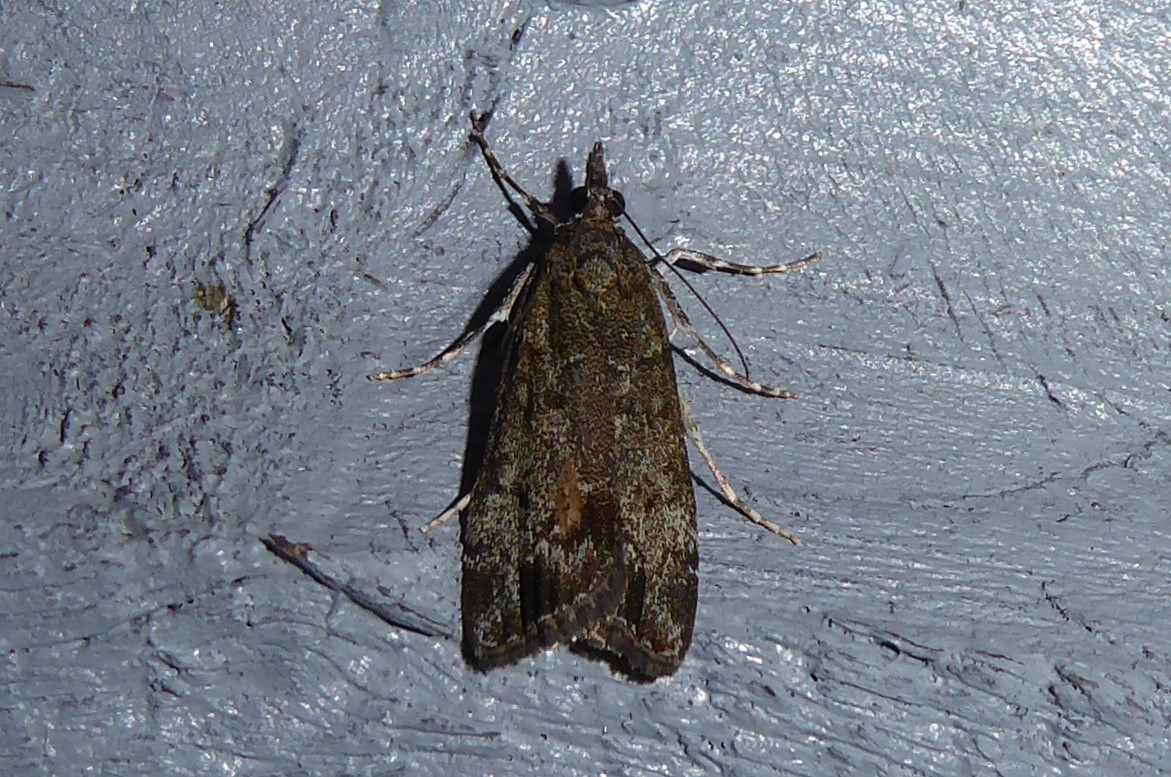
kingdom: Animalia
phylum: Arthropoda
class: Insecta
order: Lepidoptera
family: Crambidae
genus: Eudonia
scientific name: Eudonia submarginalis
